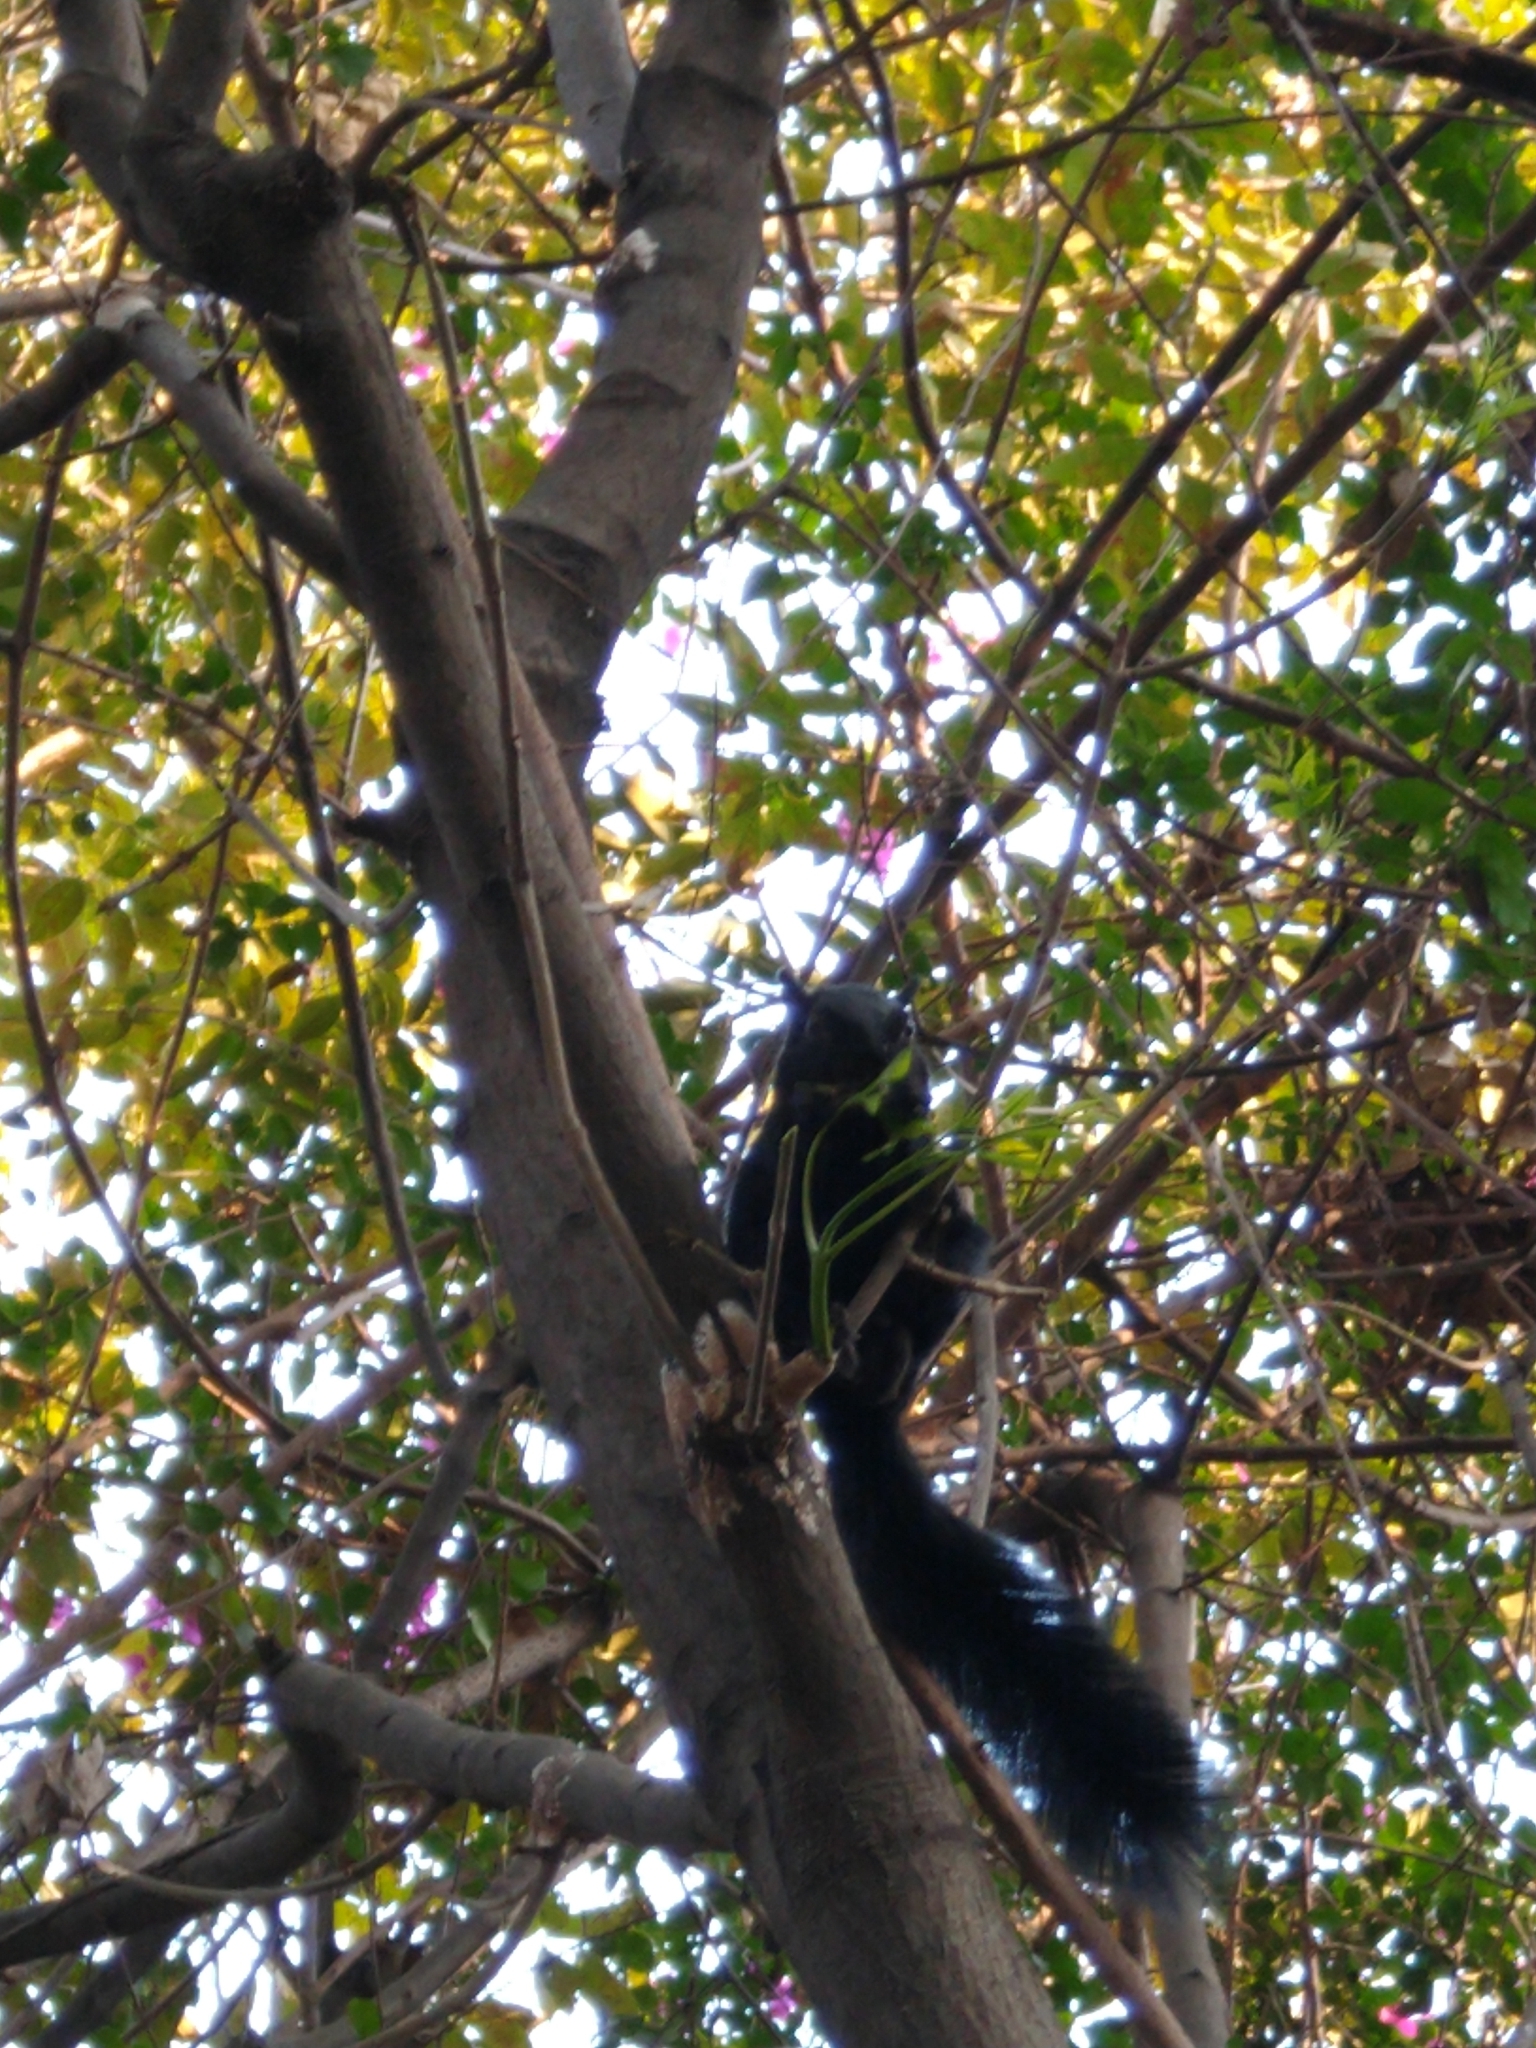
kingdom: Animalia
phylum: Chordata
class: Mammalia
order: Rodentia
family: Sciuridae
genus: Sciurus
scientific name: Sciurus aureogaster
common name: Red-bellied squirrel
